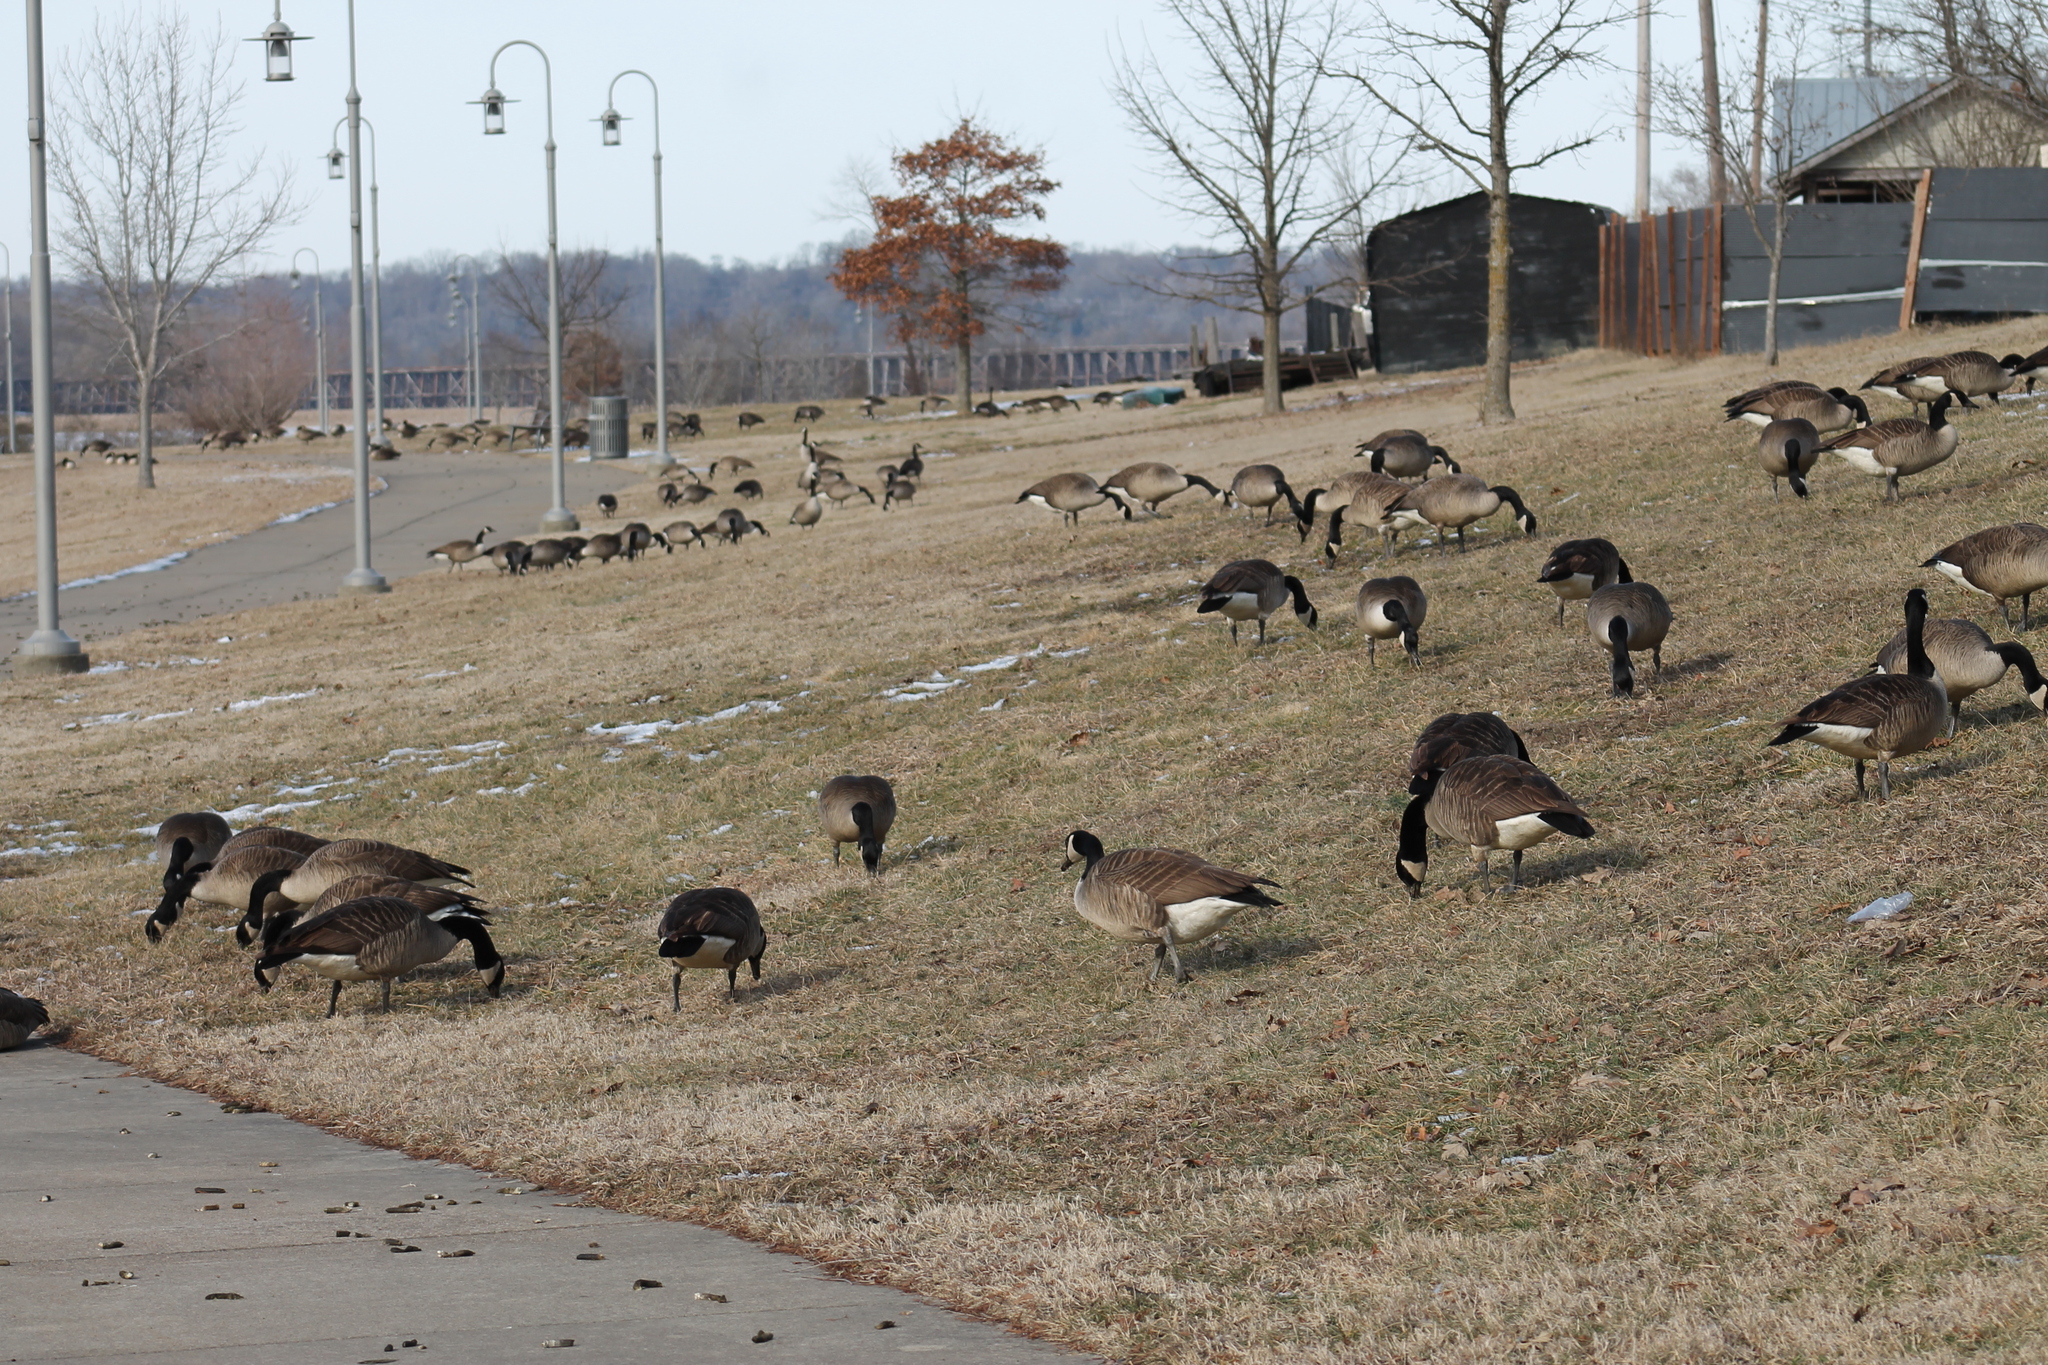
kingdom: Animalia
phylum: Chordata
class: Aves
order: Anseriformes
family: Anatidae
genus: Branta
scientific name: Branta canadensis
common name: Canada goose
